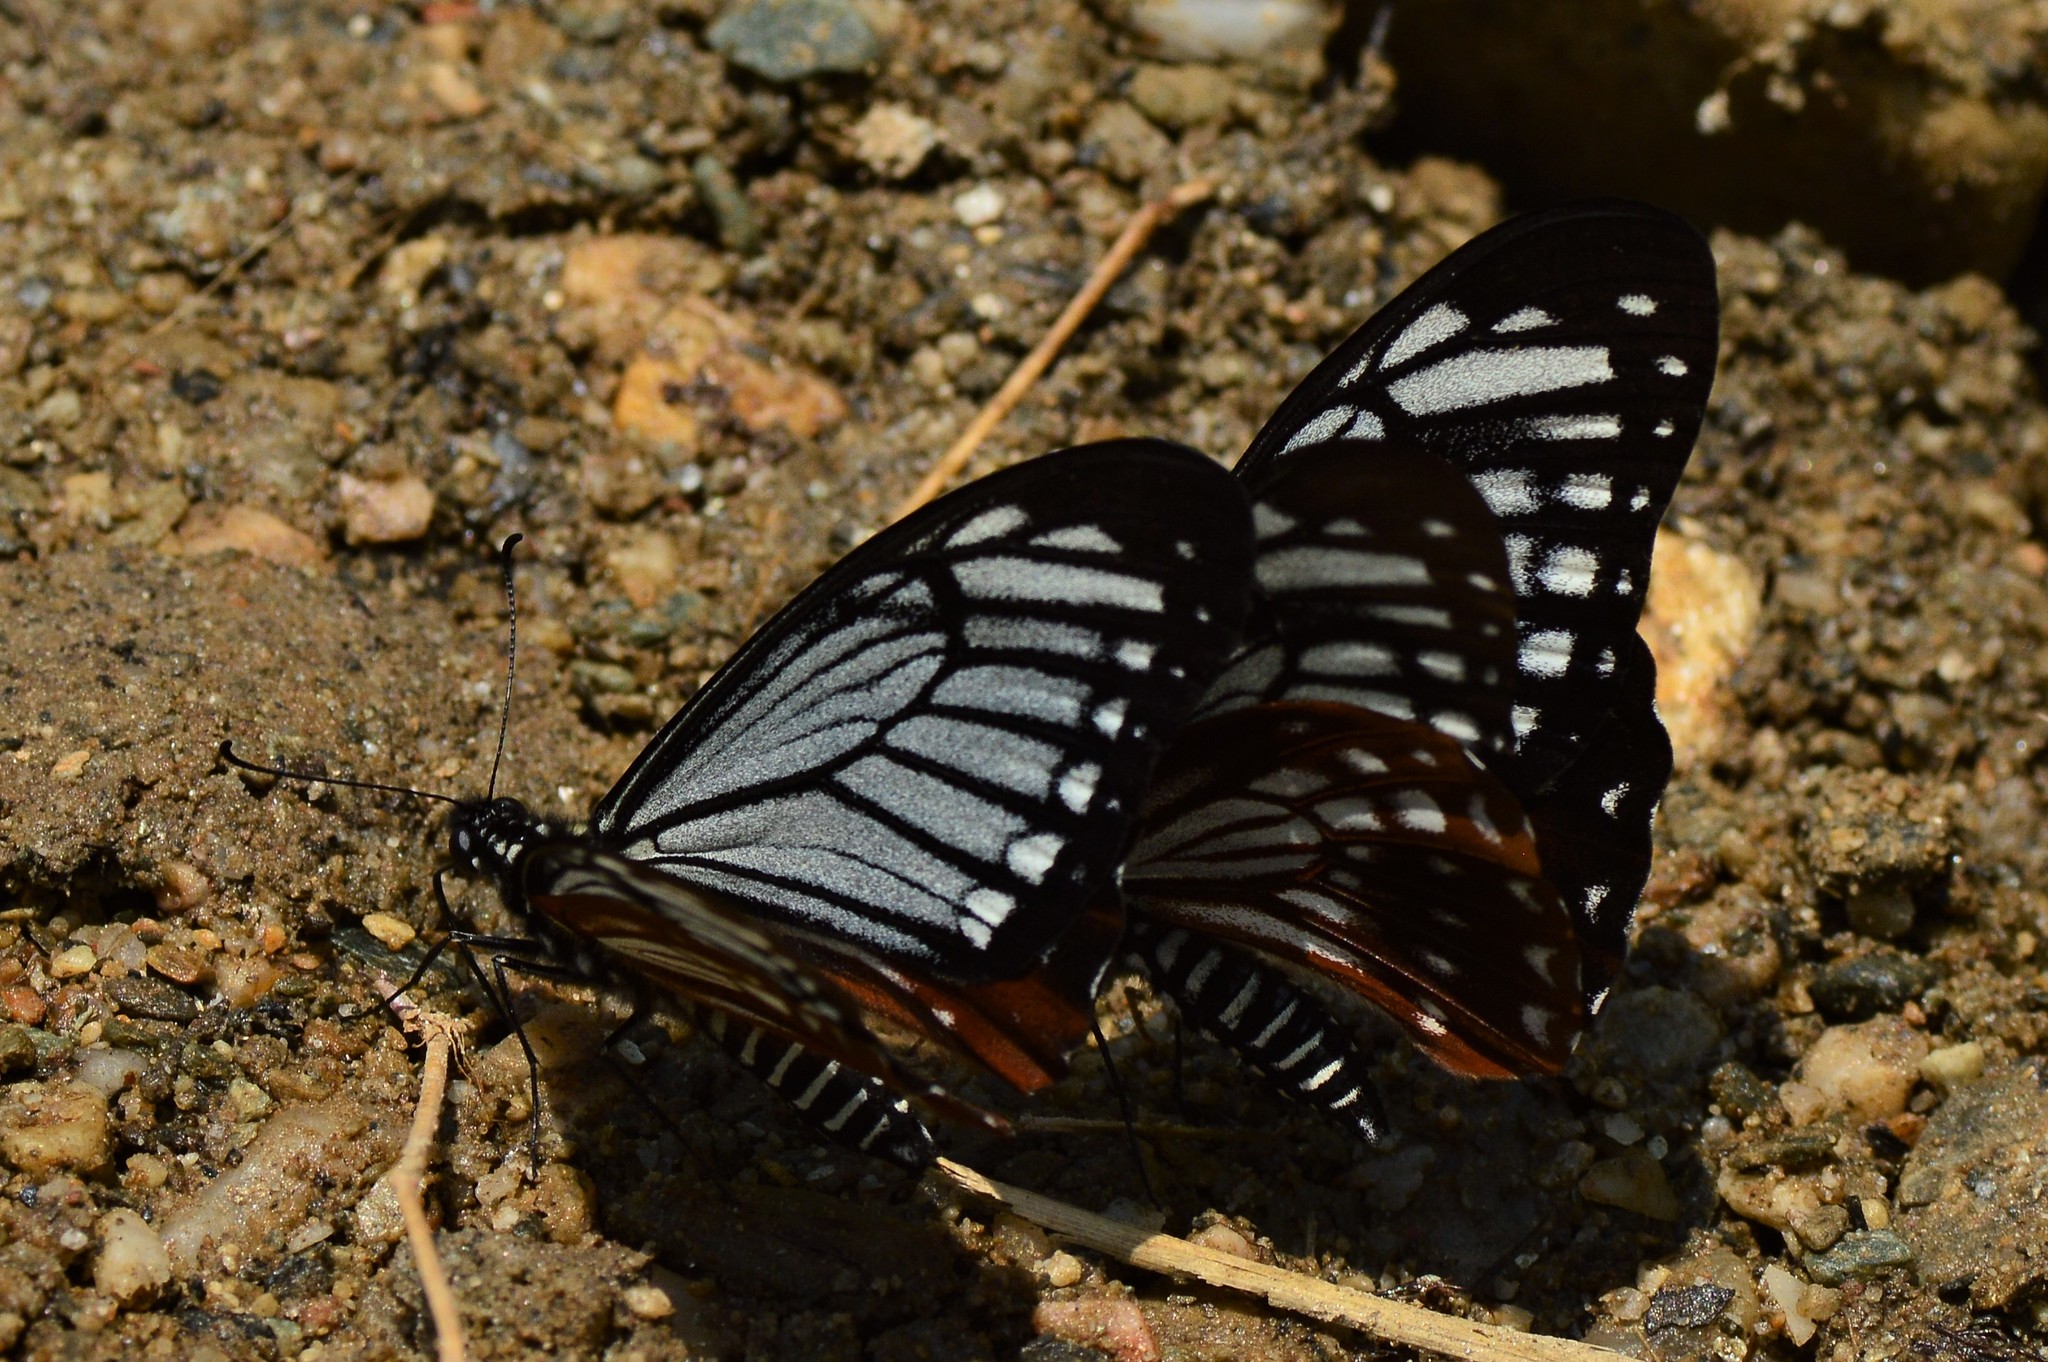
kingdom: Animalia
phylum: Arthropoda
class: Insecta
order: Lepidoptera
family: Lycaenidae
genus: Plebicula
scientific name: Plebicula escheri
